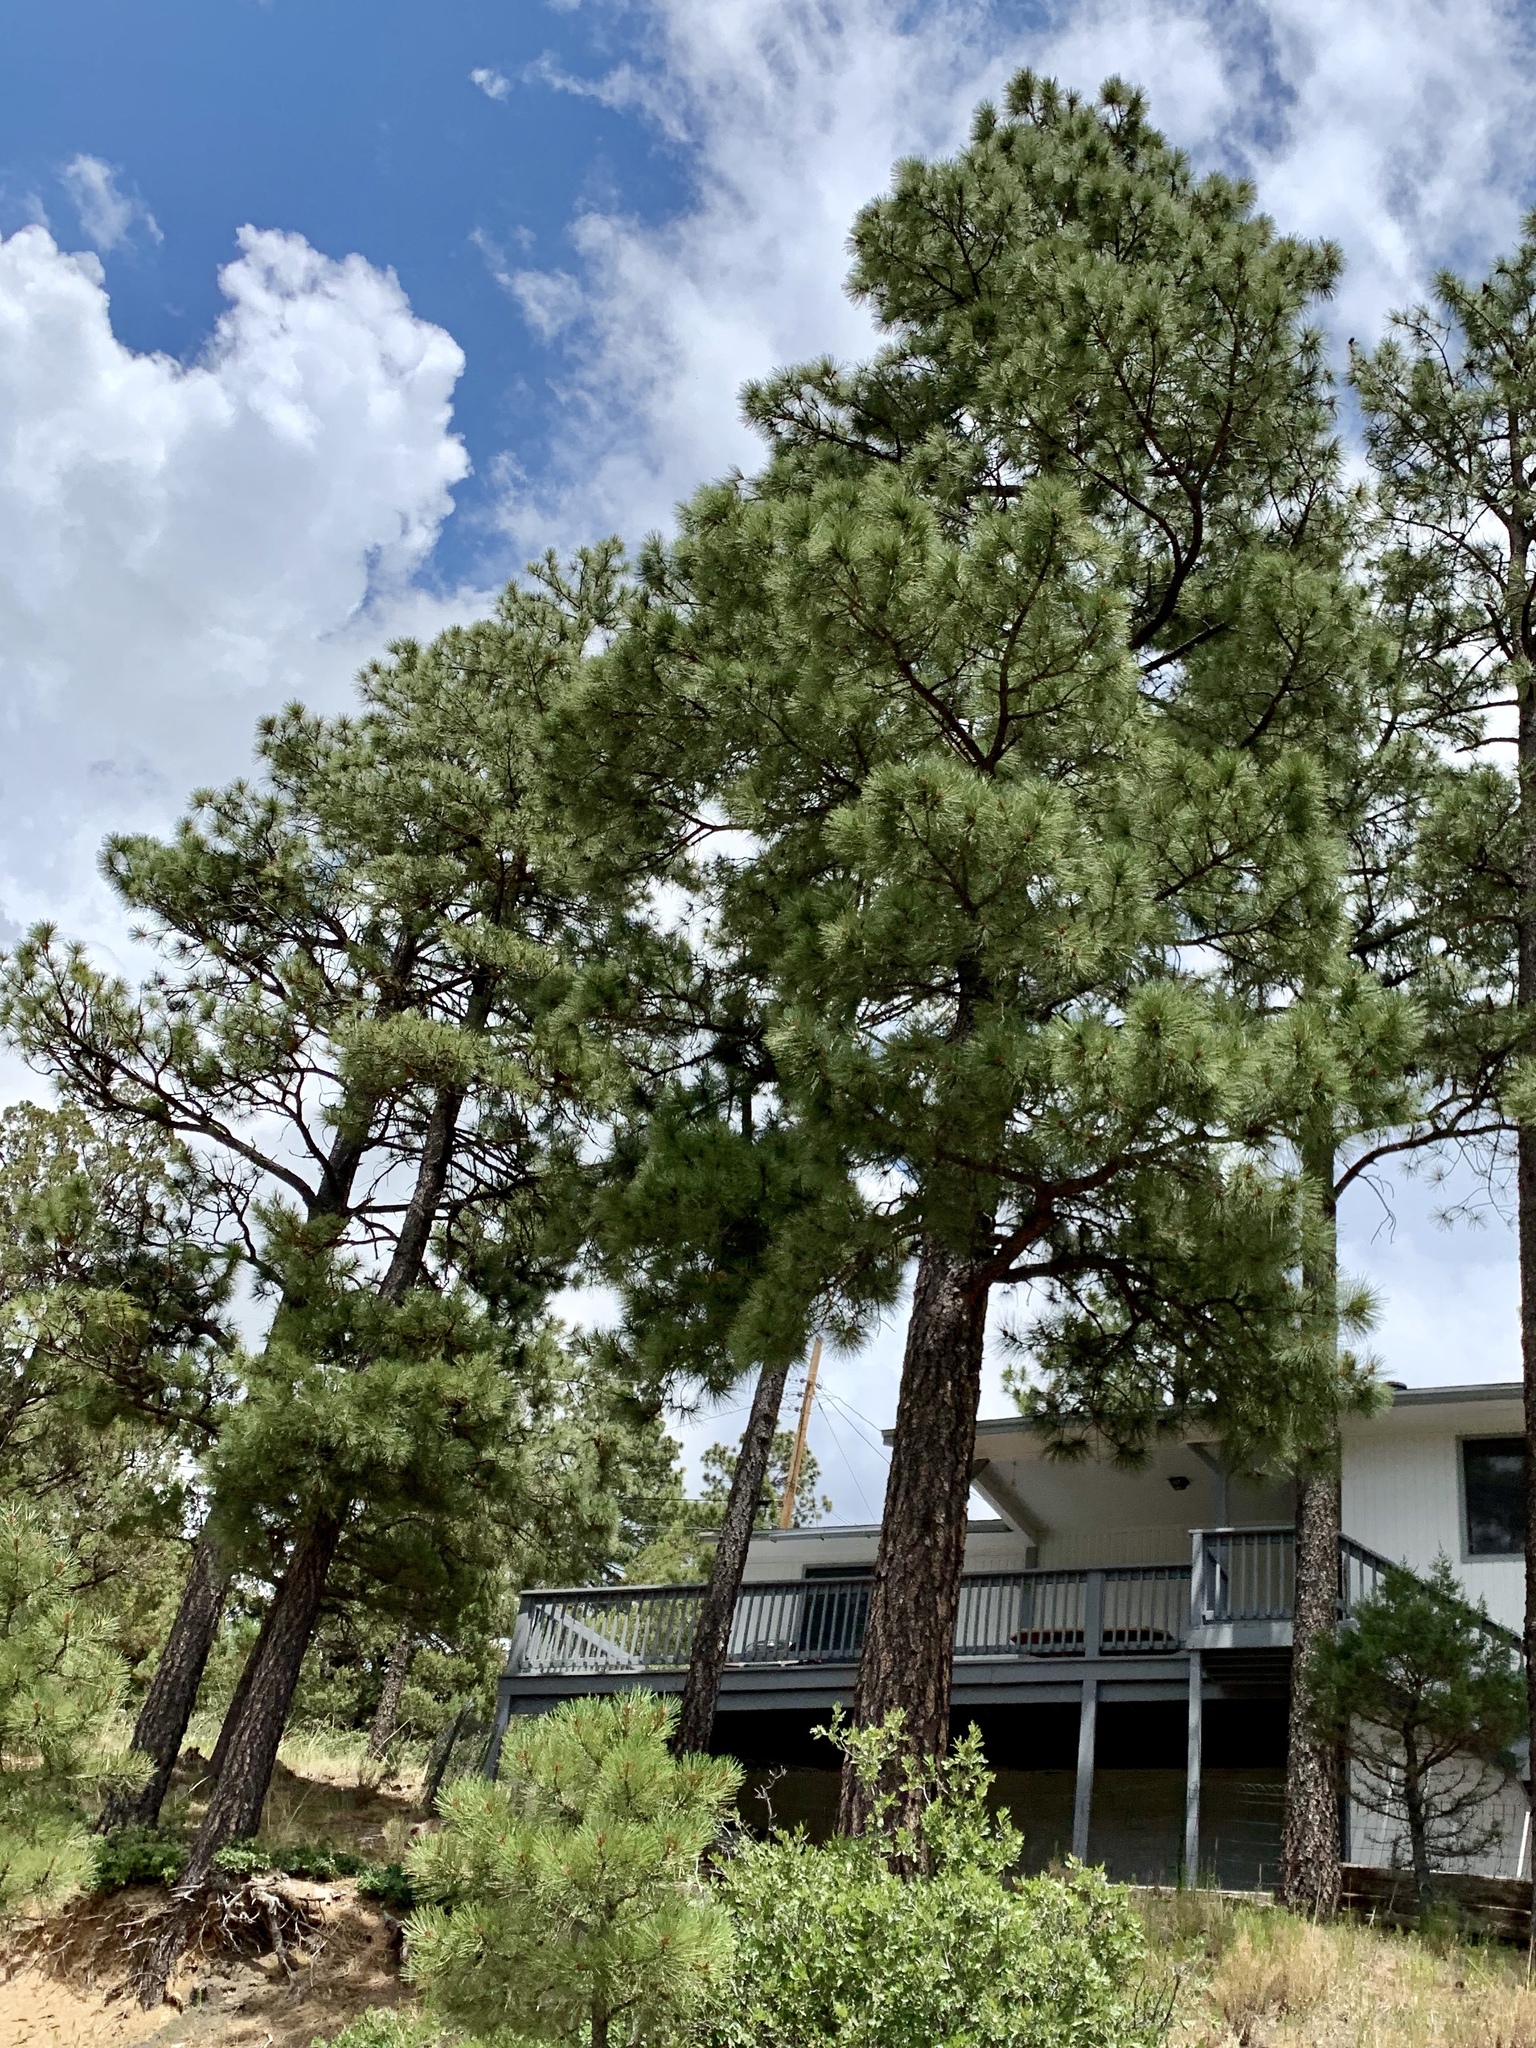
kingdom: Plantae
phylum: Tracheophyta
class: Pinopsida
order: Pinales
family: Pinaceae
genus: Pinus
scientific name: Pinus ponderosa
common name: Western yellow-pine
